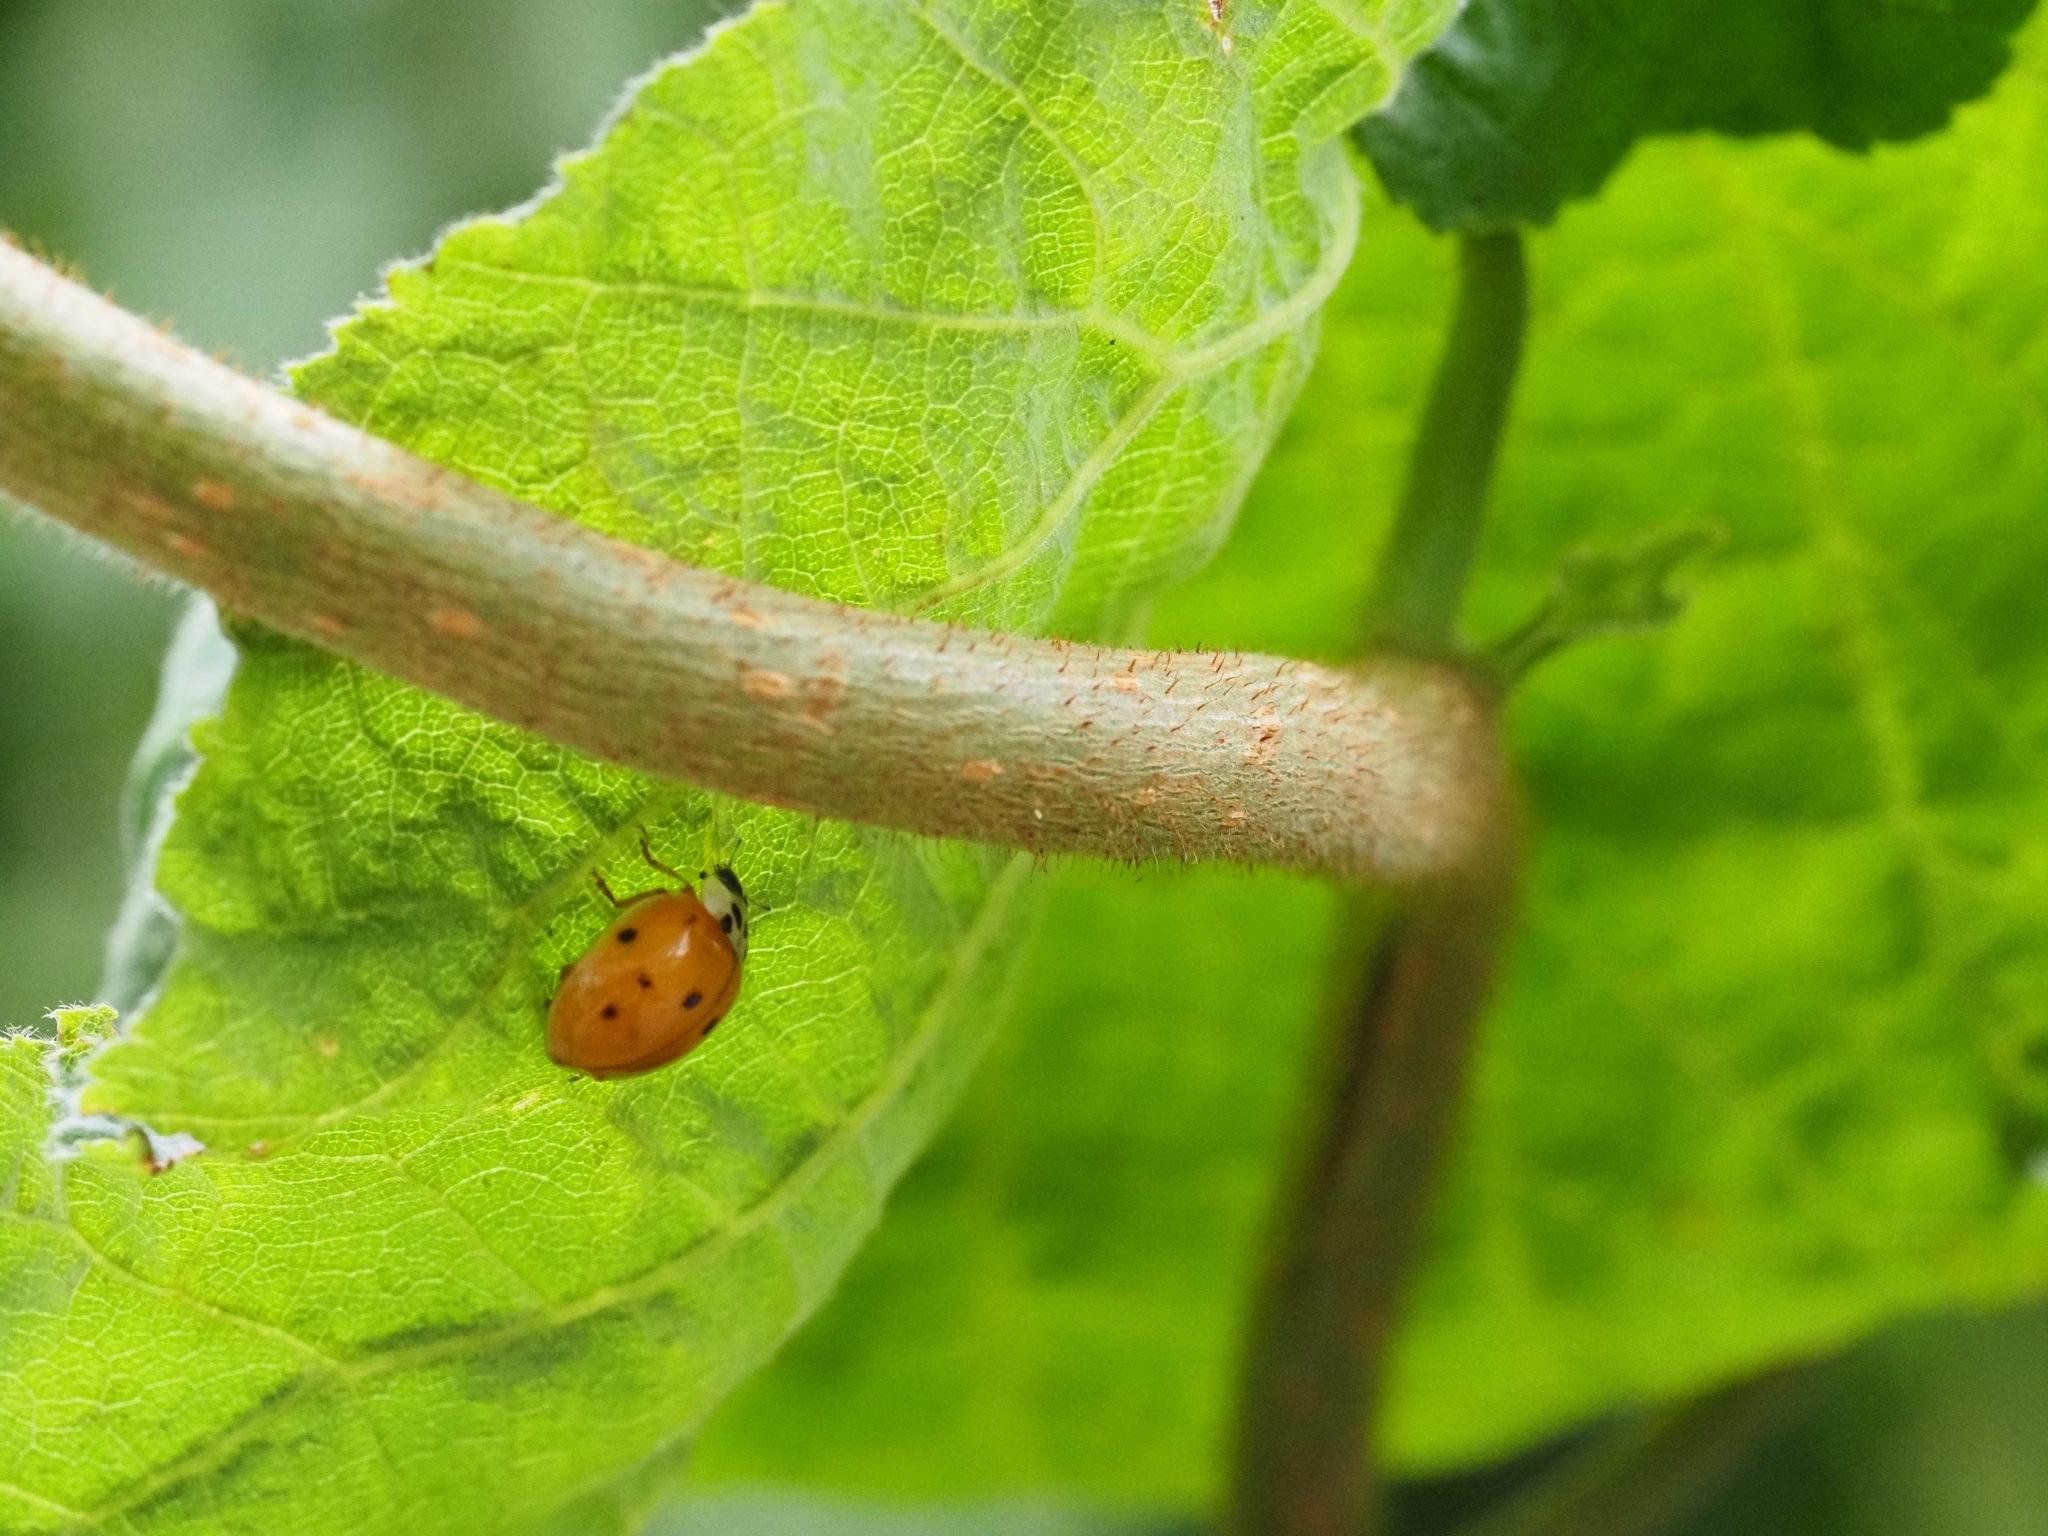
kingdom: Animalia
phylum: Arthropoda
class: Insecta
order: Coleoptera
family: Coccinellidae
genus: Harmonia
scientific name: Harmonia axyridis
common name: Harlequin ladybird
